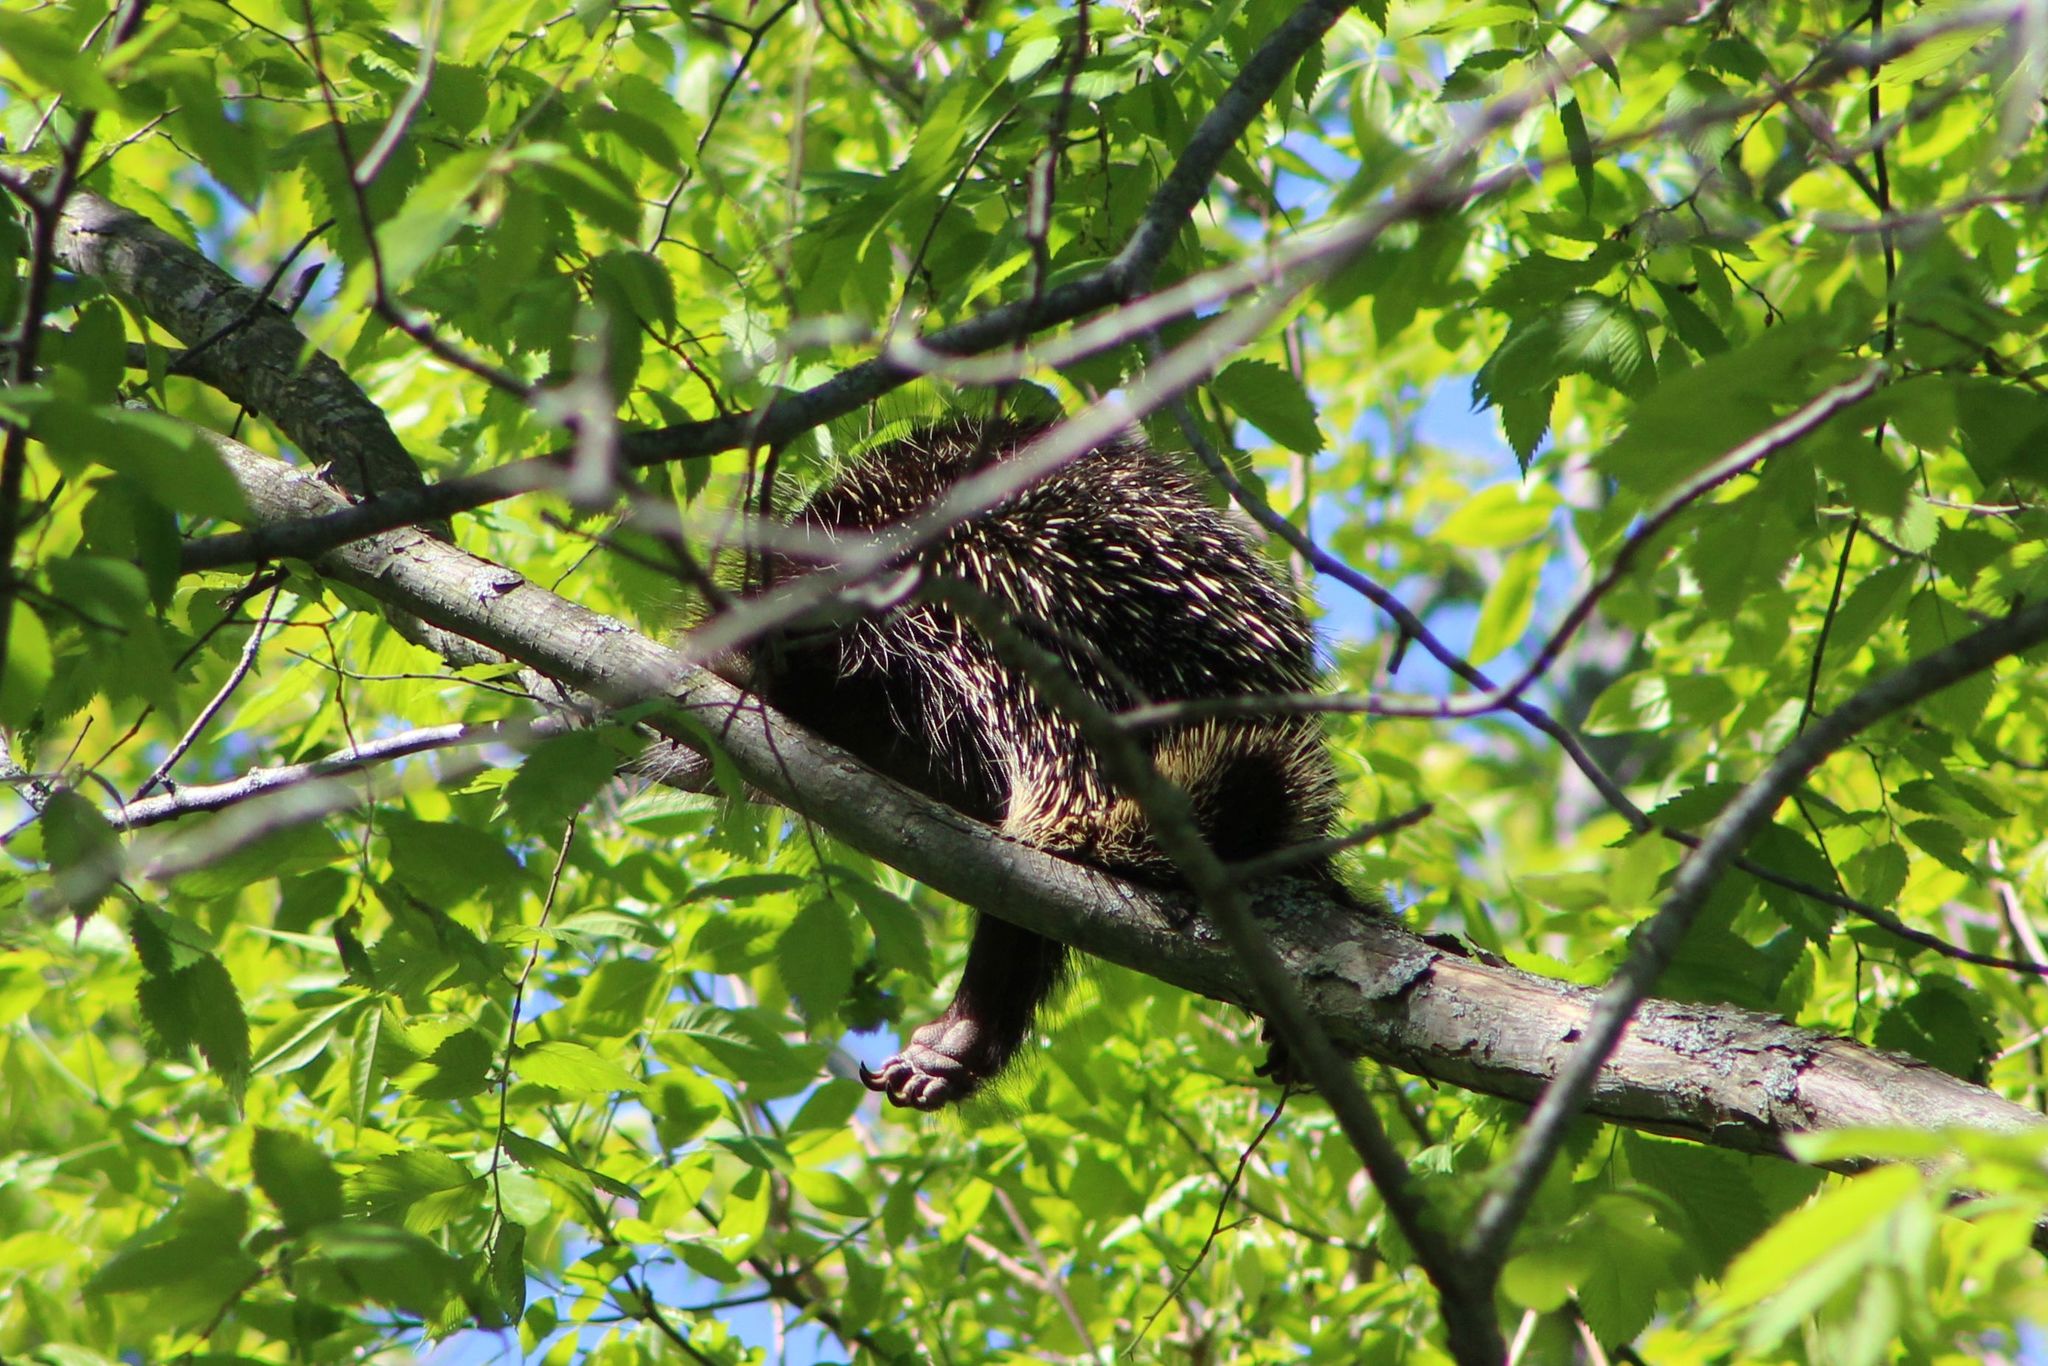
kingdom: Animalia
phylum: Chordata
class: Mammalia
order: Rodentia
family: Erethizontidae
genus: Erethizon
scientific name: Erethizon dorsatus
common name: North american porcupine
